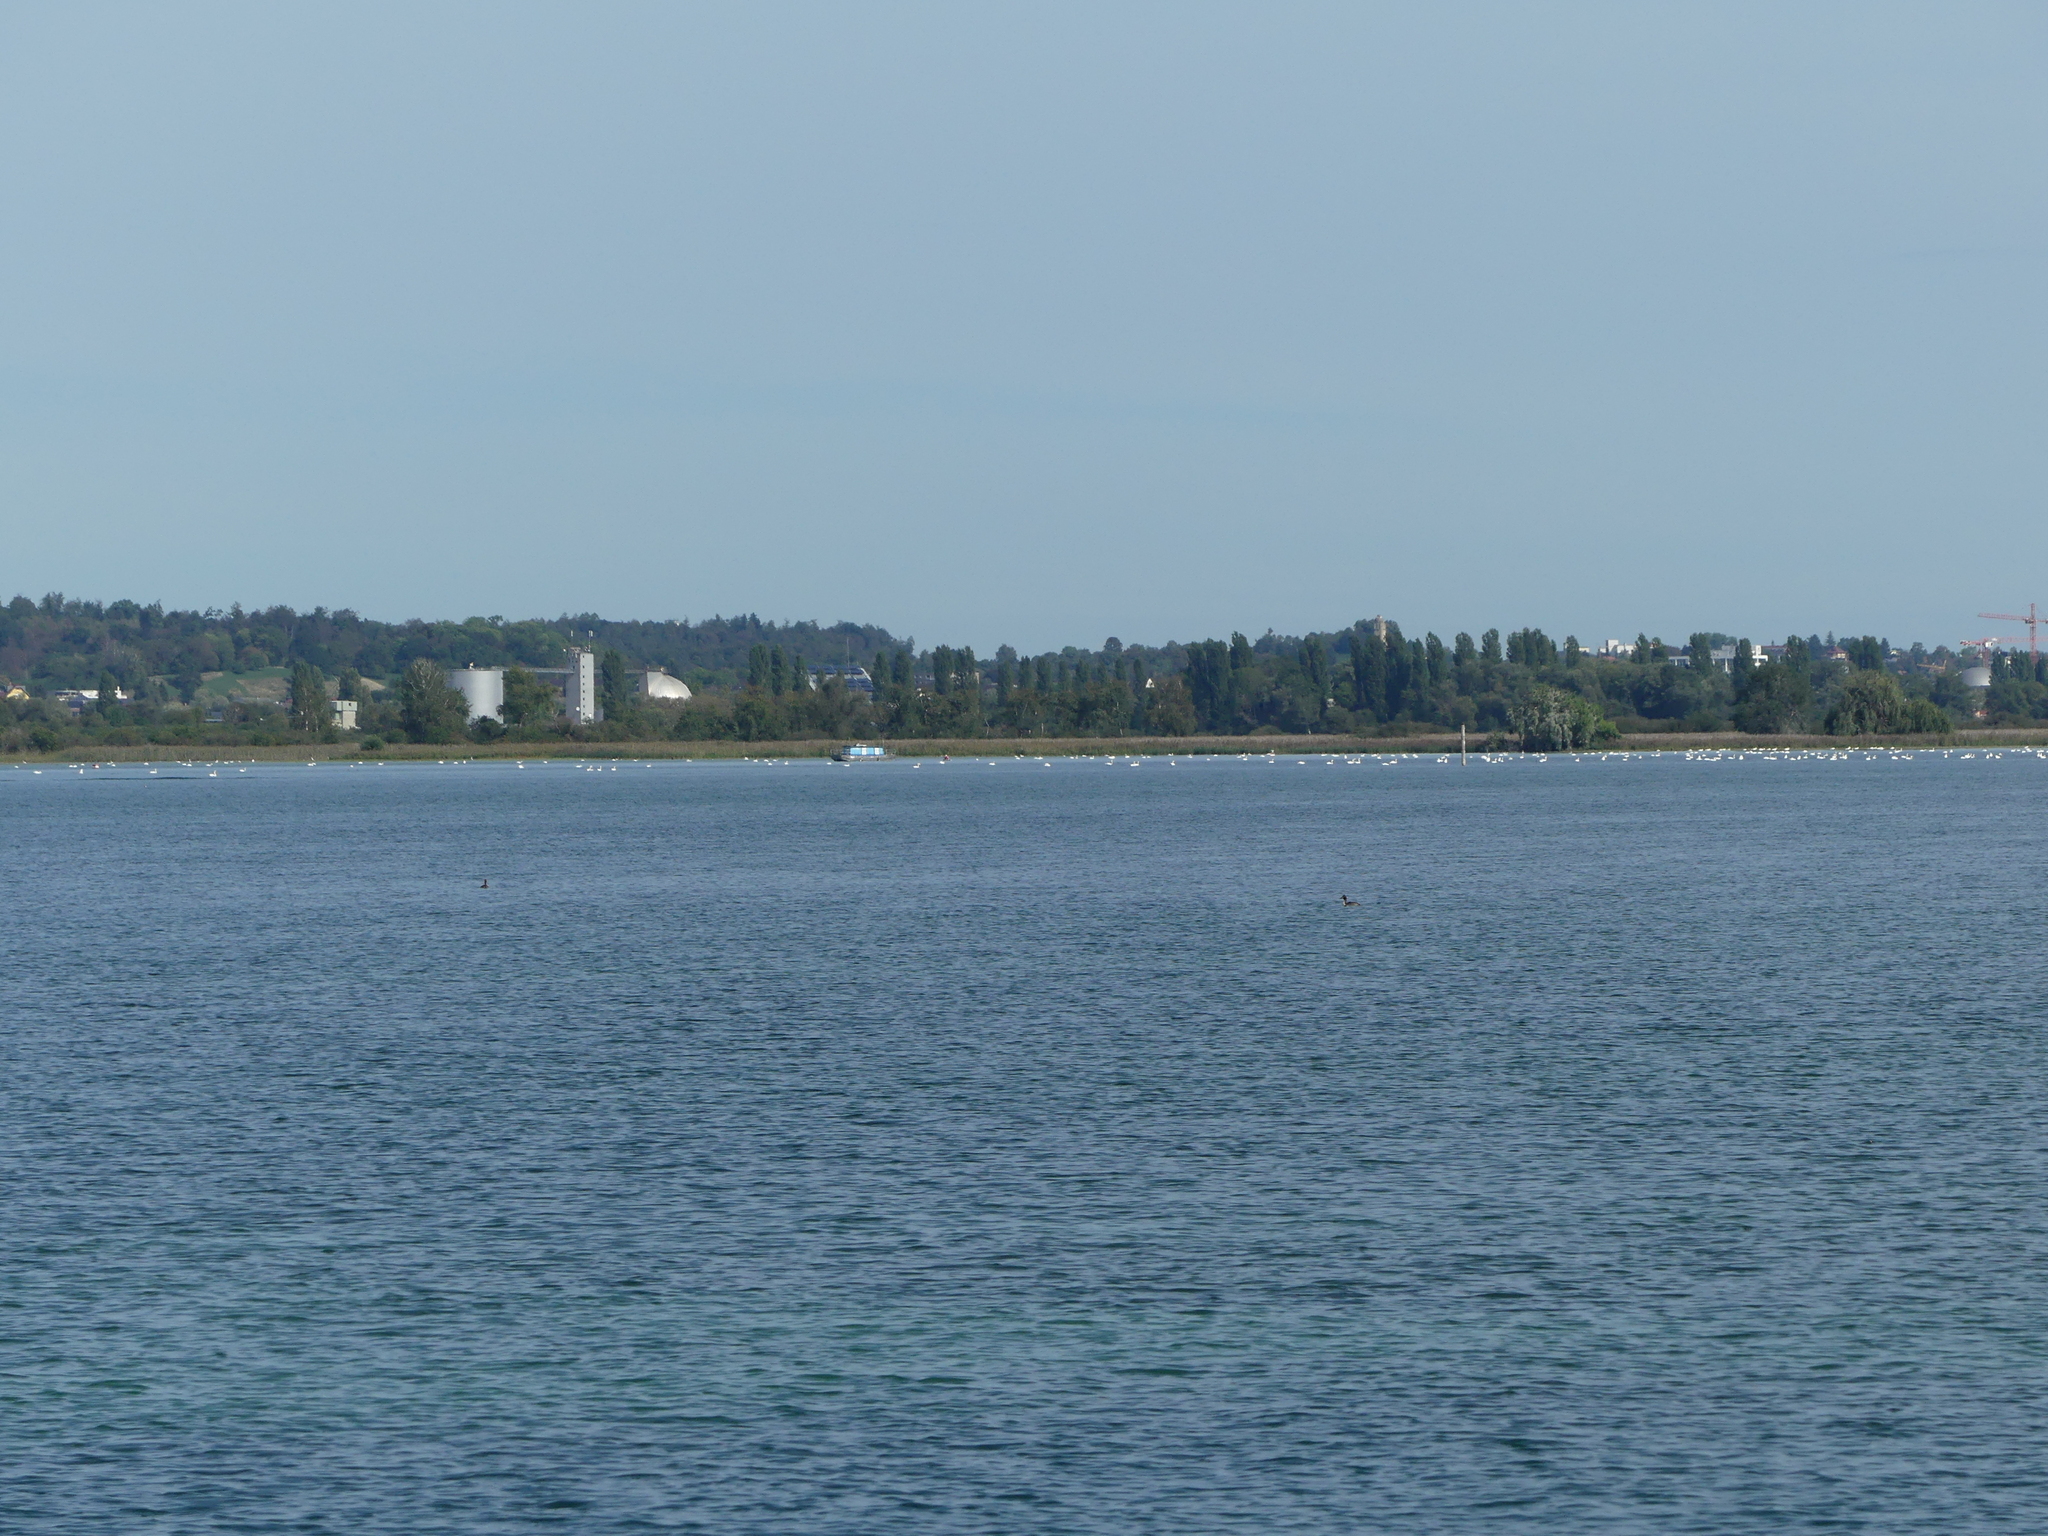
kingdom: Animalia
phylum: Chordata
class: Aves
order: Anseriformes
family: Anatidae
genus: Cygnus
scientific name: Cygnus olor
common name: Mute swan
